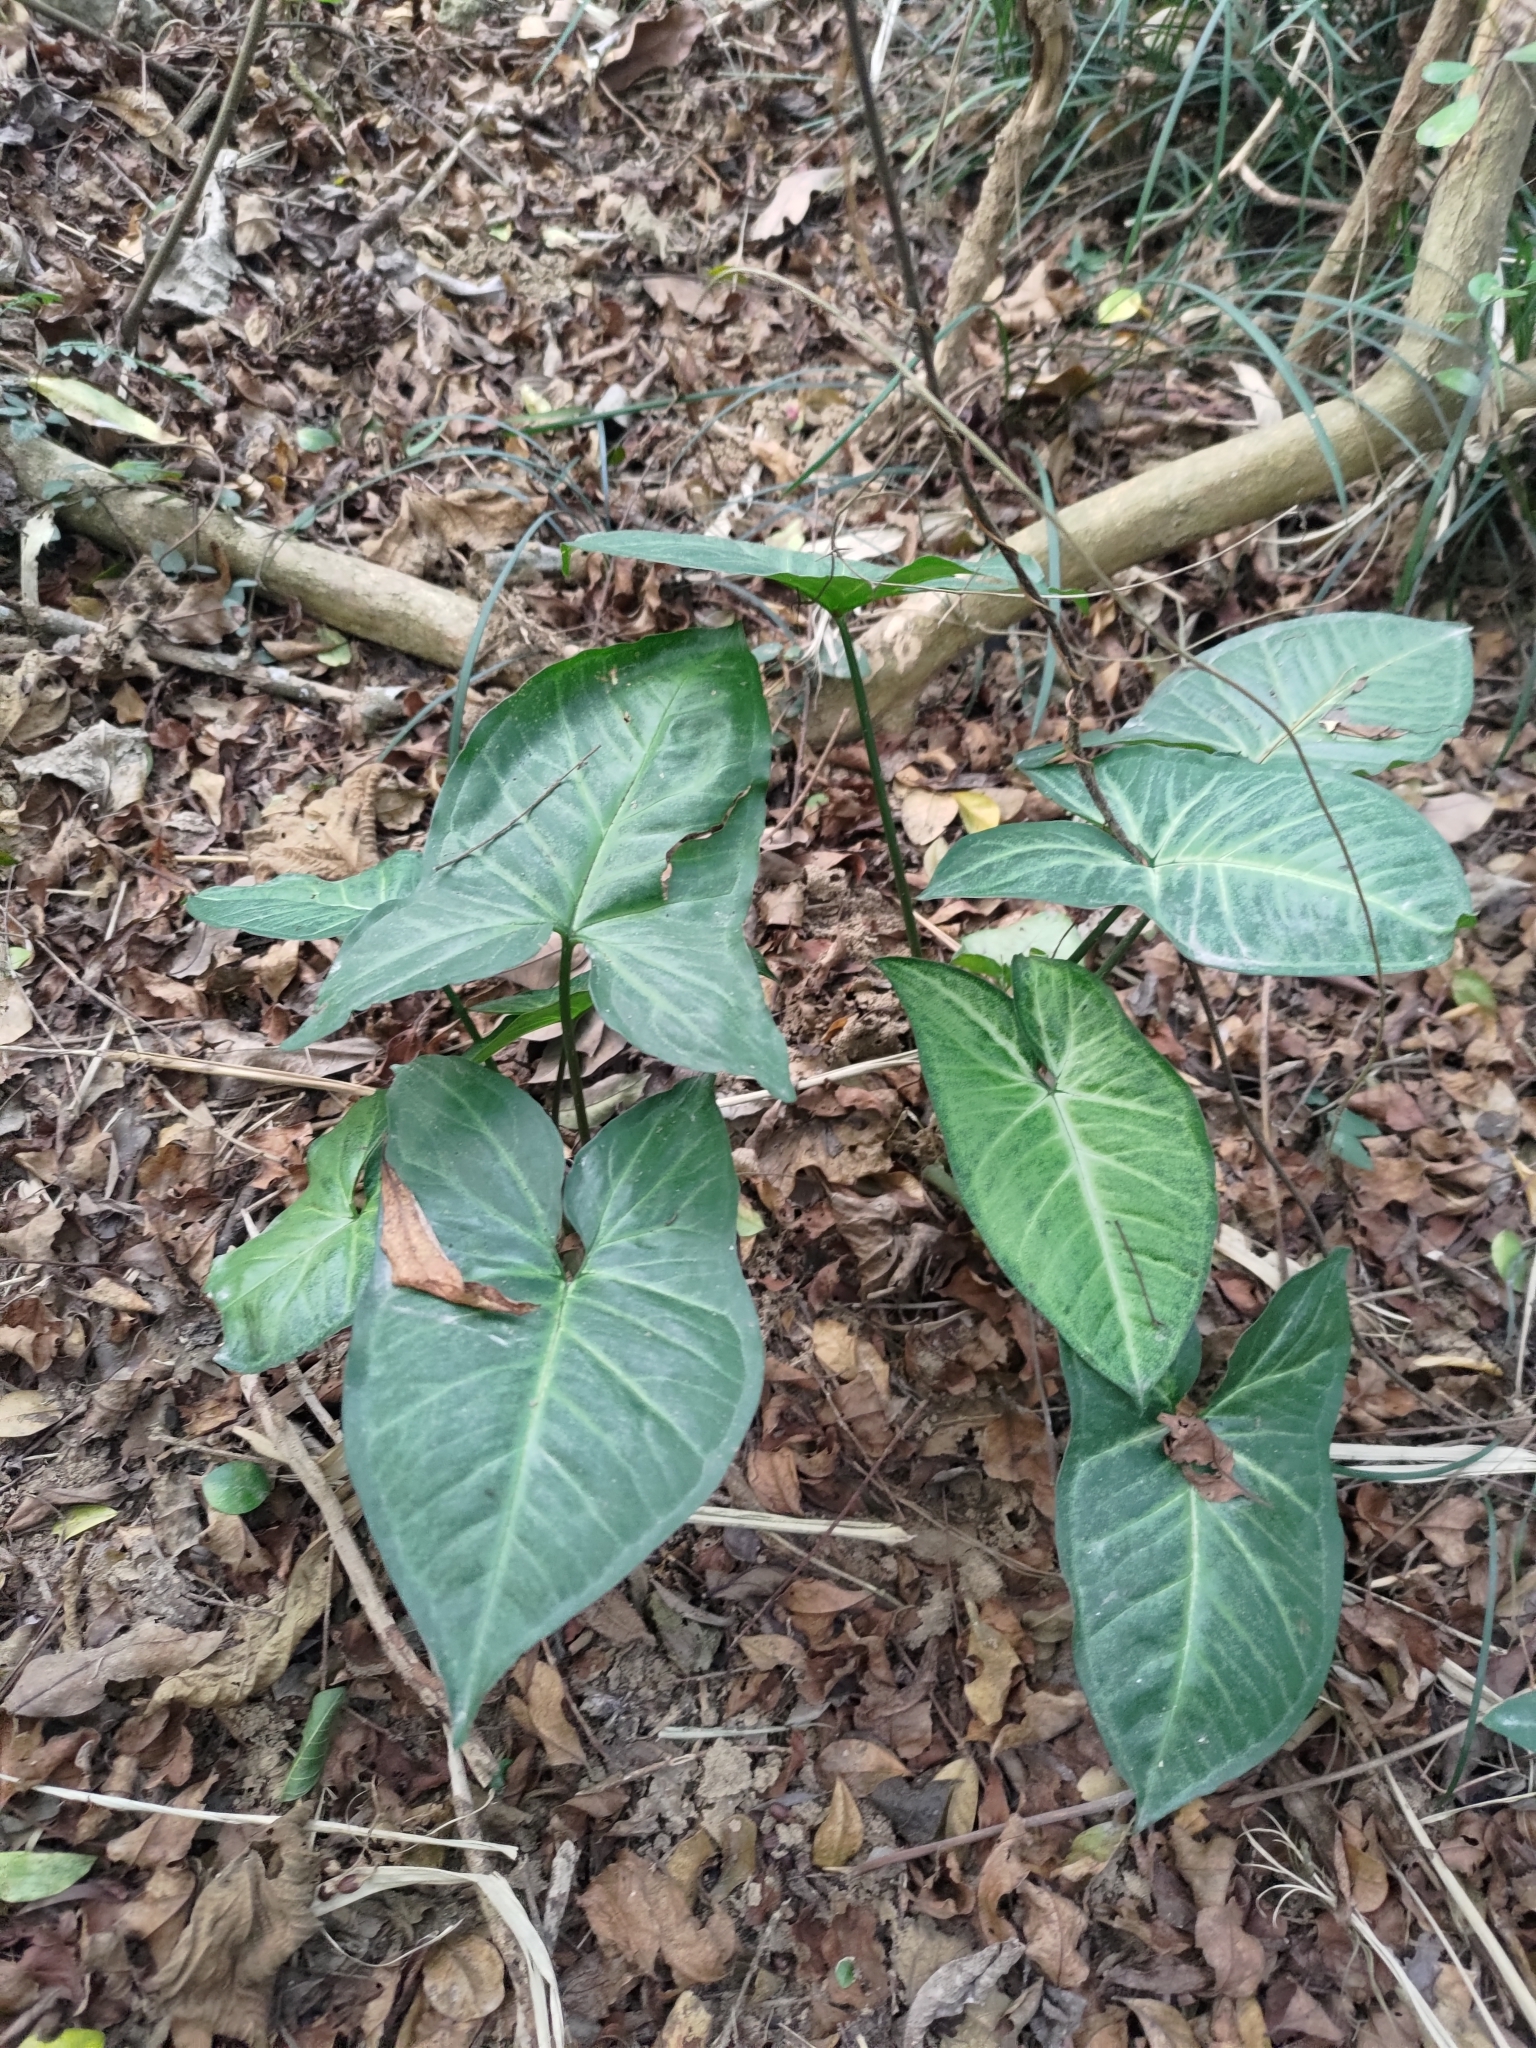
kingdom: Plantae
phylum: Tracheophyta
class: Liliopsida
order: Alismatales
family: Araceae
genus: Syngonium
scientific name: Syngonium podophyllum
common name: American evergreen
